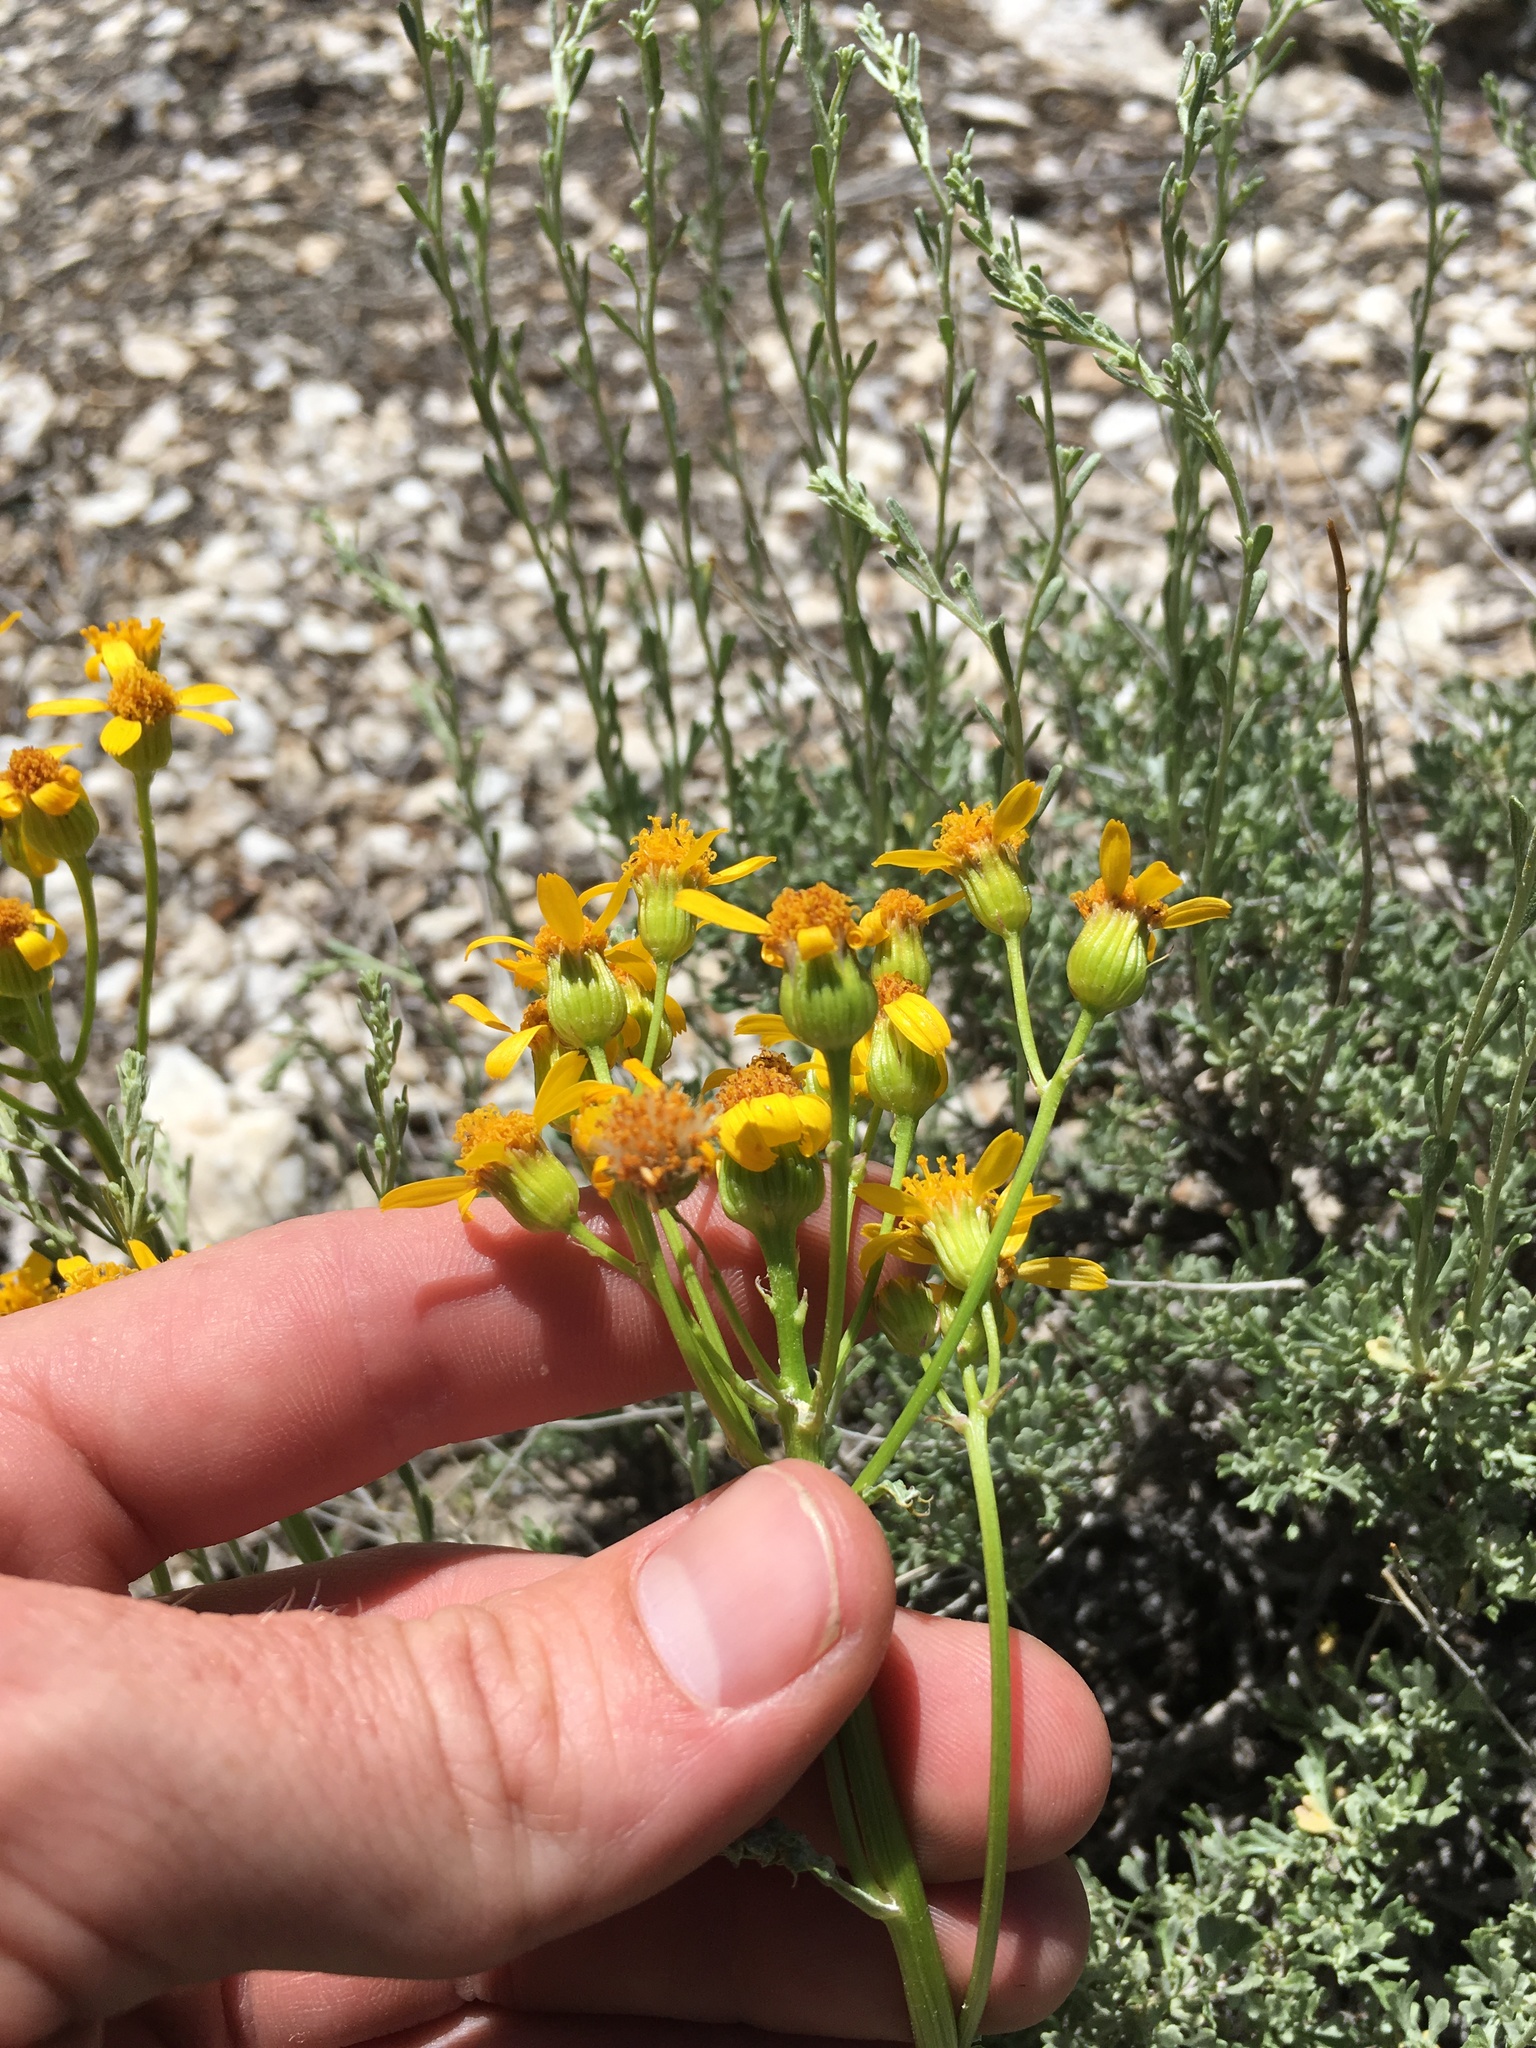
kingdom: Plantae
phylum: Tracheophyta
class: Magnoliopsida
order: Asterales
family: Asteraceae
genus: Packera
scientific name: Packera multilobata
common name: Lobe-leaf groundsel
